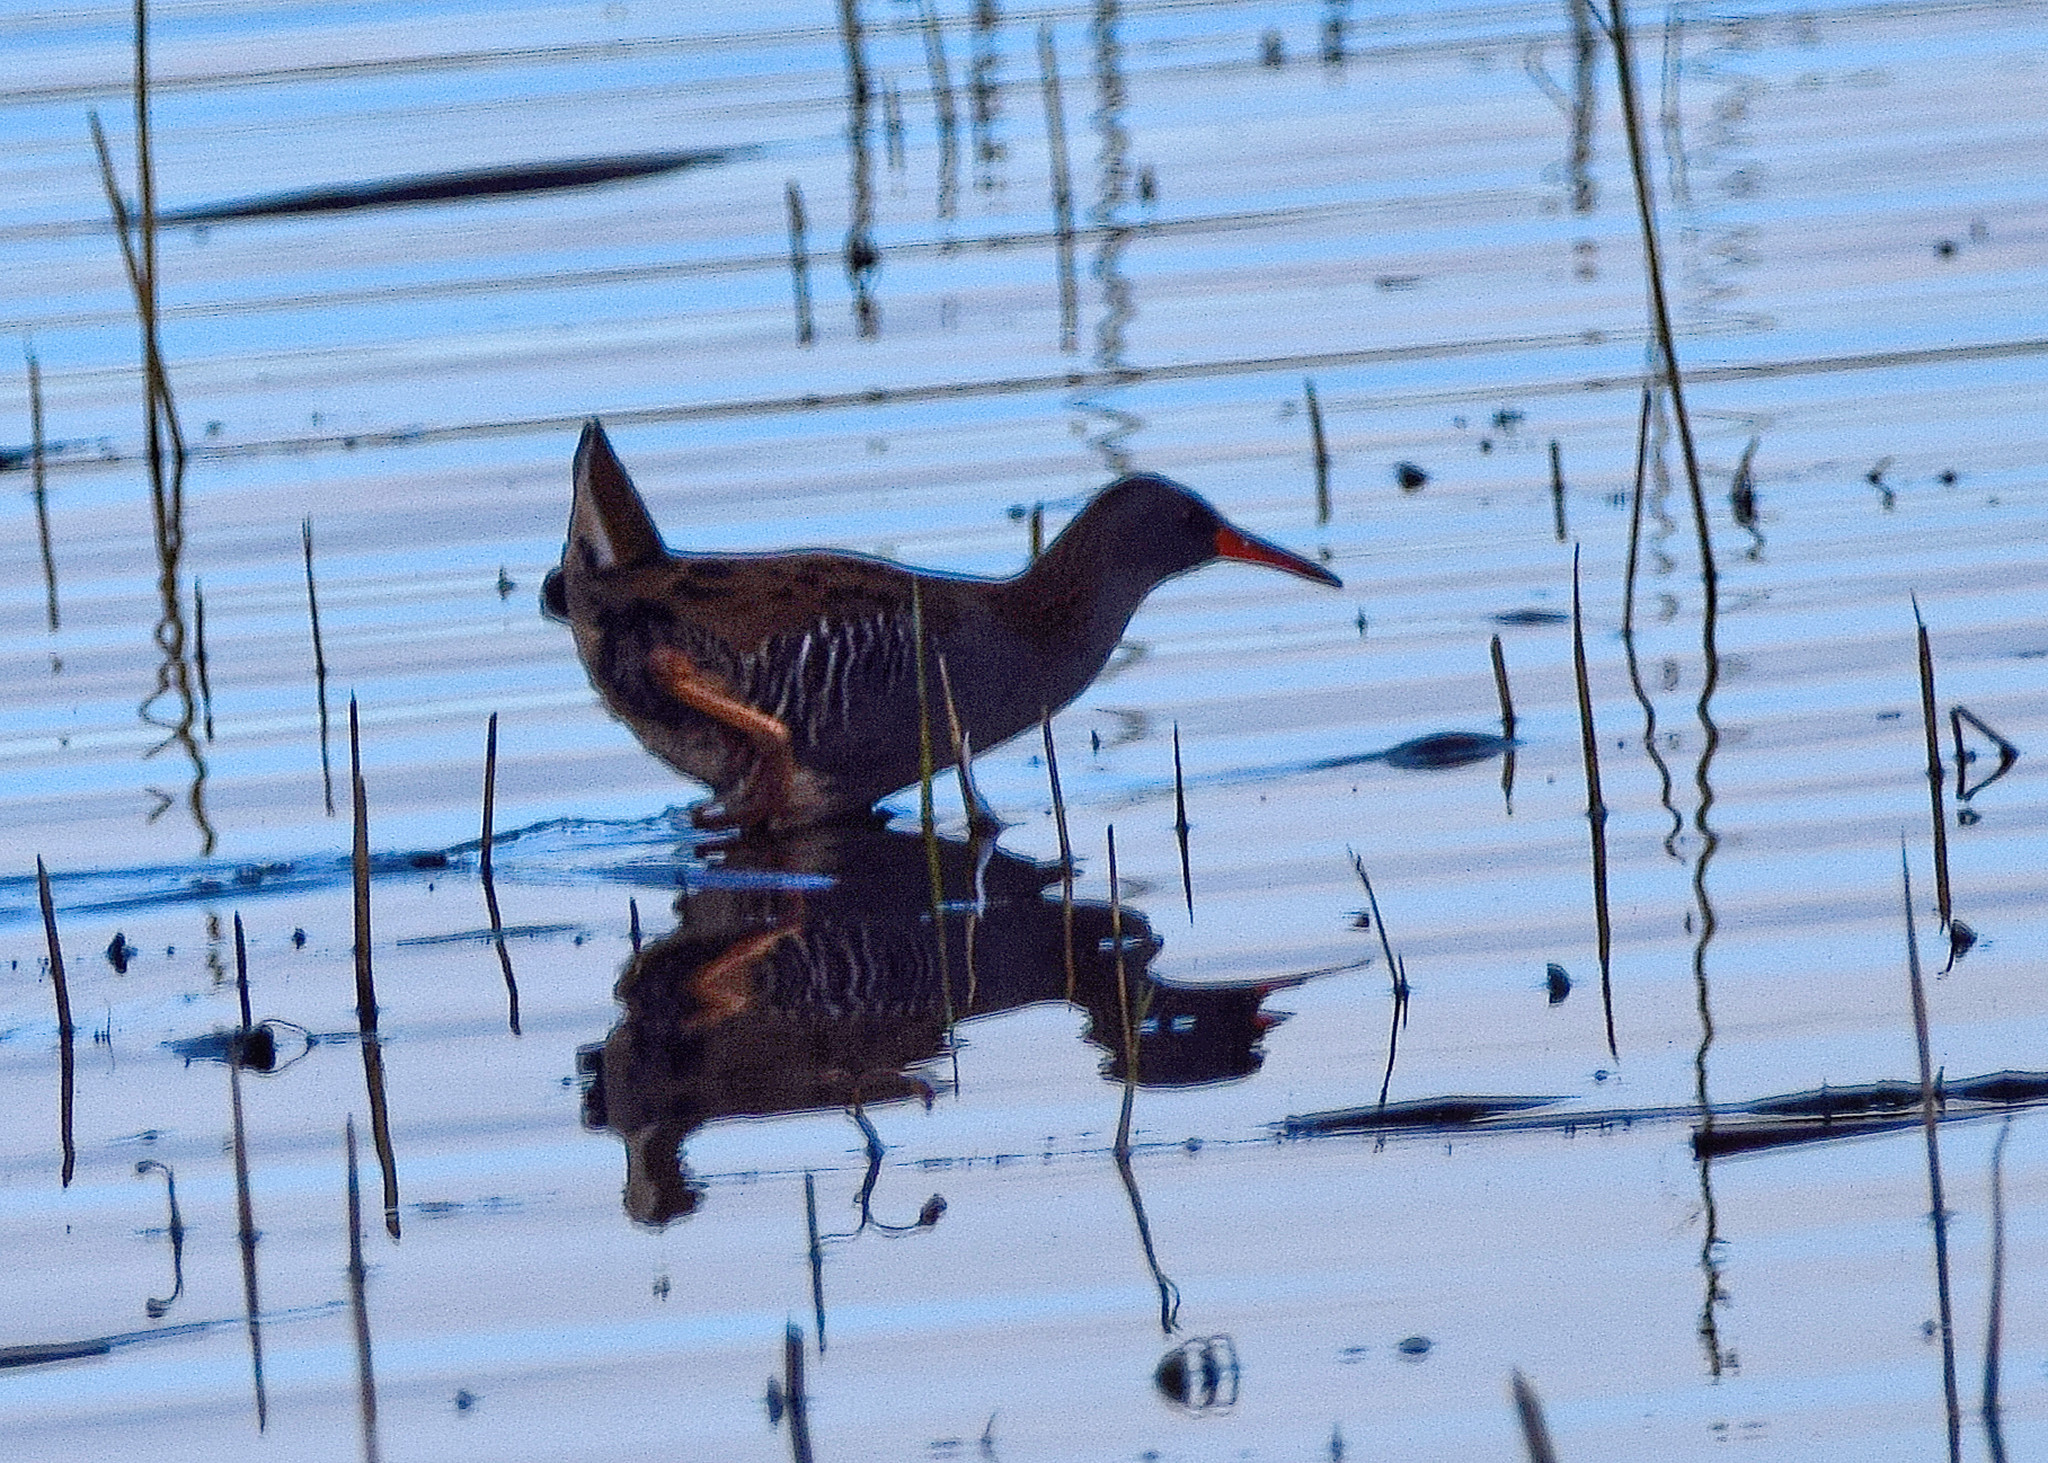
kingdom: Animalia
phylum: Chordata
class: Aves
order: Gruiformes
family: Rallidae
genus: Rallus
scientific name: Rallus aquaticus
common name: Water rail
